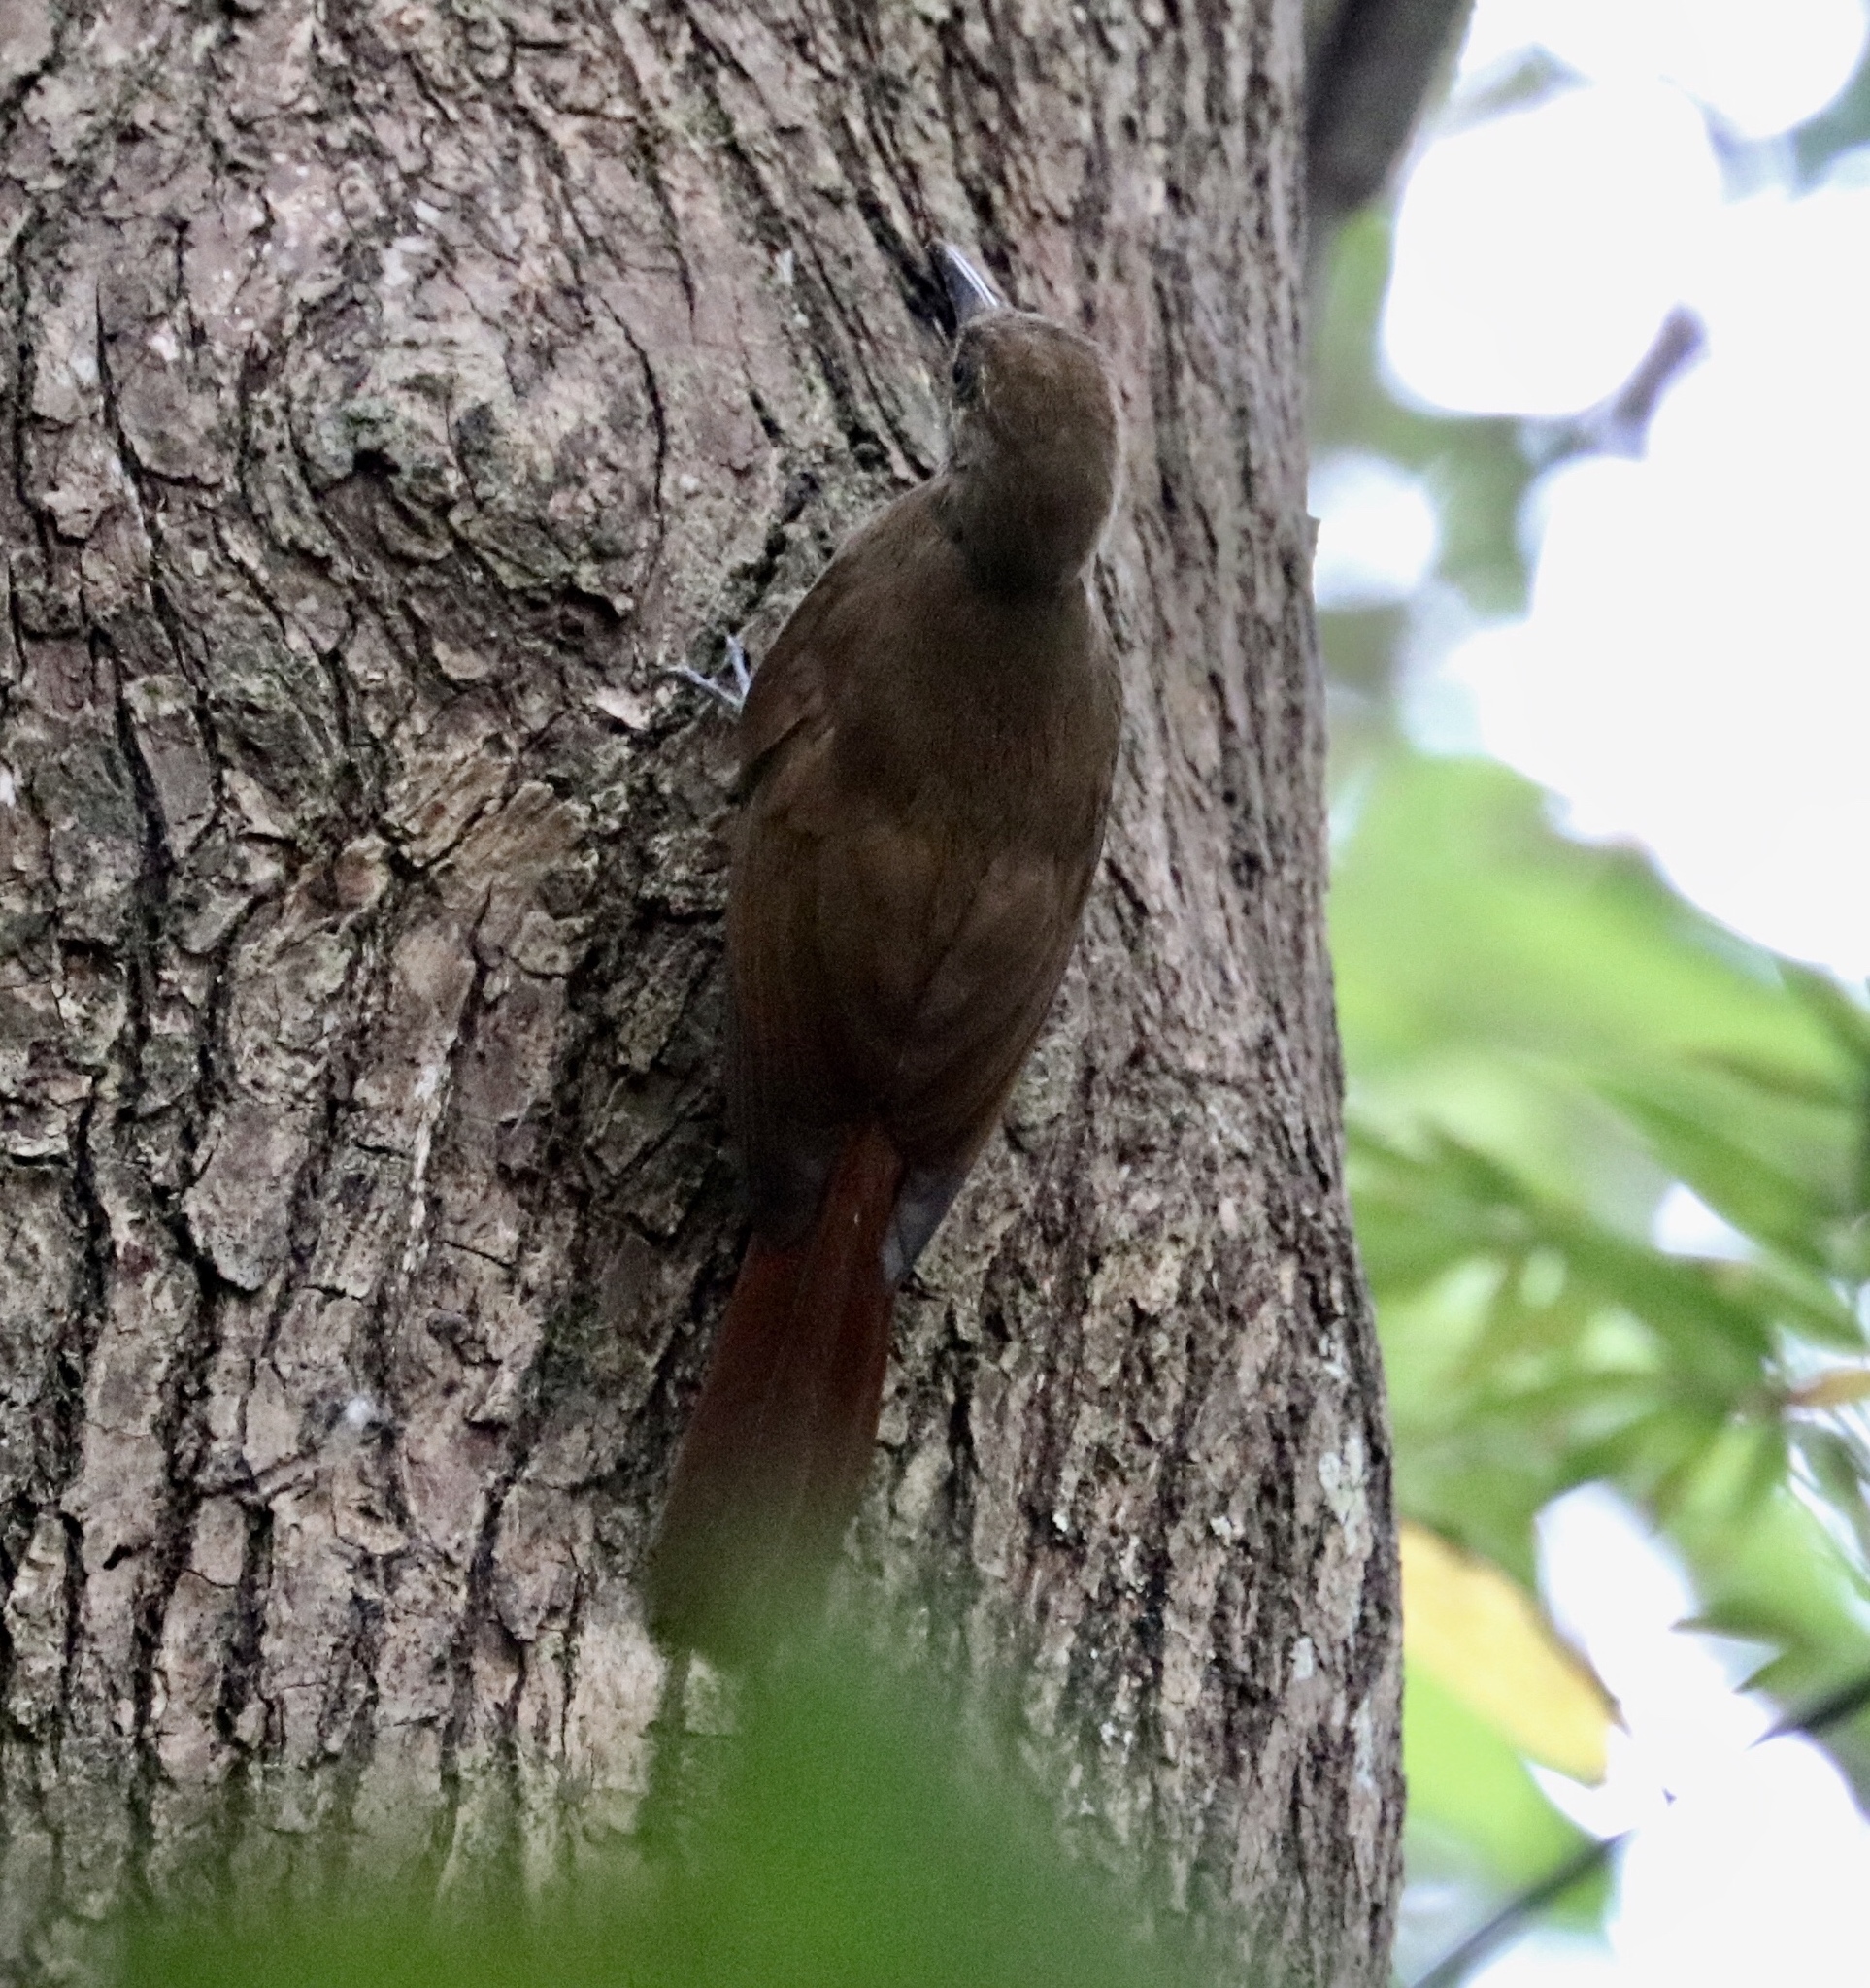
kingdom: Animalia
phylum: Chordata
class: Aves
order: Passeriformes
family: Furnariidae
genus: Dendrocincla
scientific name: Dendrocincla fuliginosa
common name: Plain-brown woodcreeper
